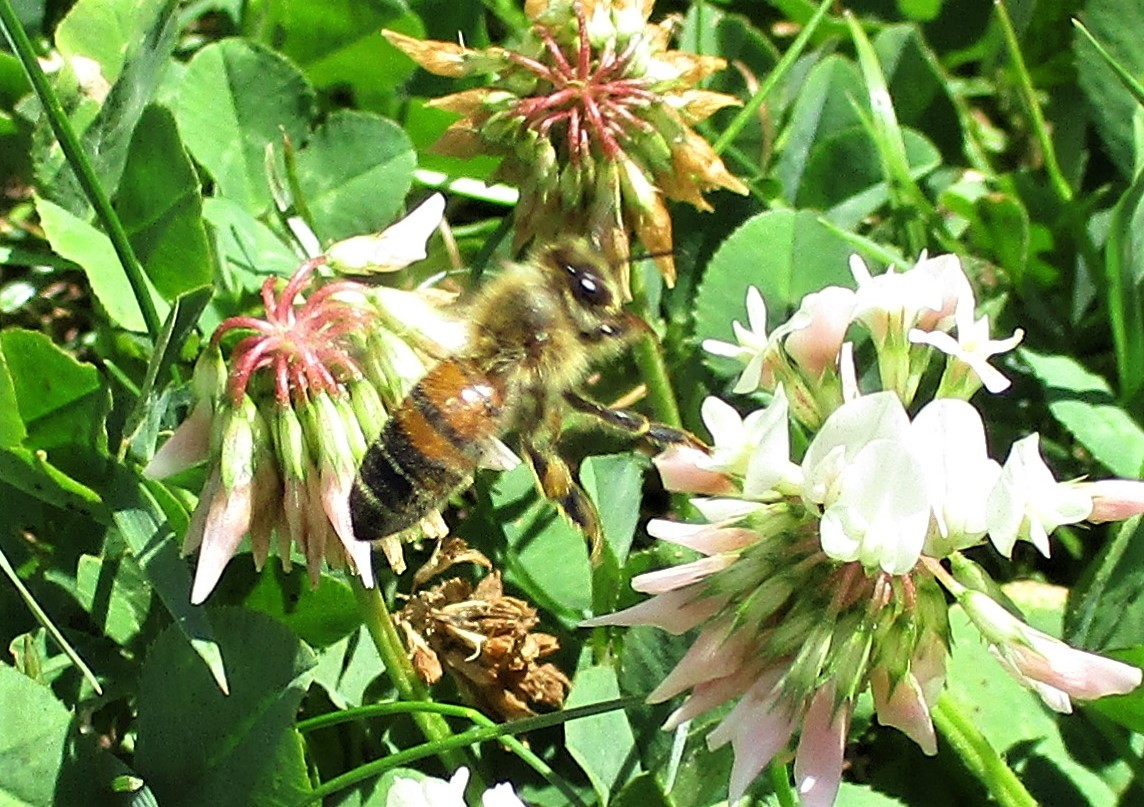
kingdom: Animalia
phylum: Arthropoda
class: Insecta
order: Hymenoptera
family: Apidae
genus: Apis
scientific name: Apis mellifera
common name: Honey bee
